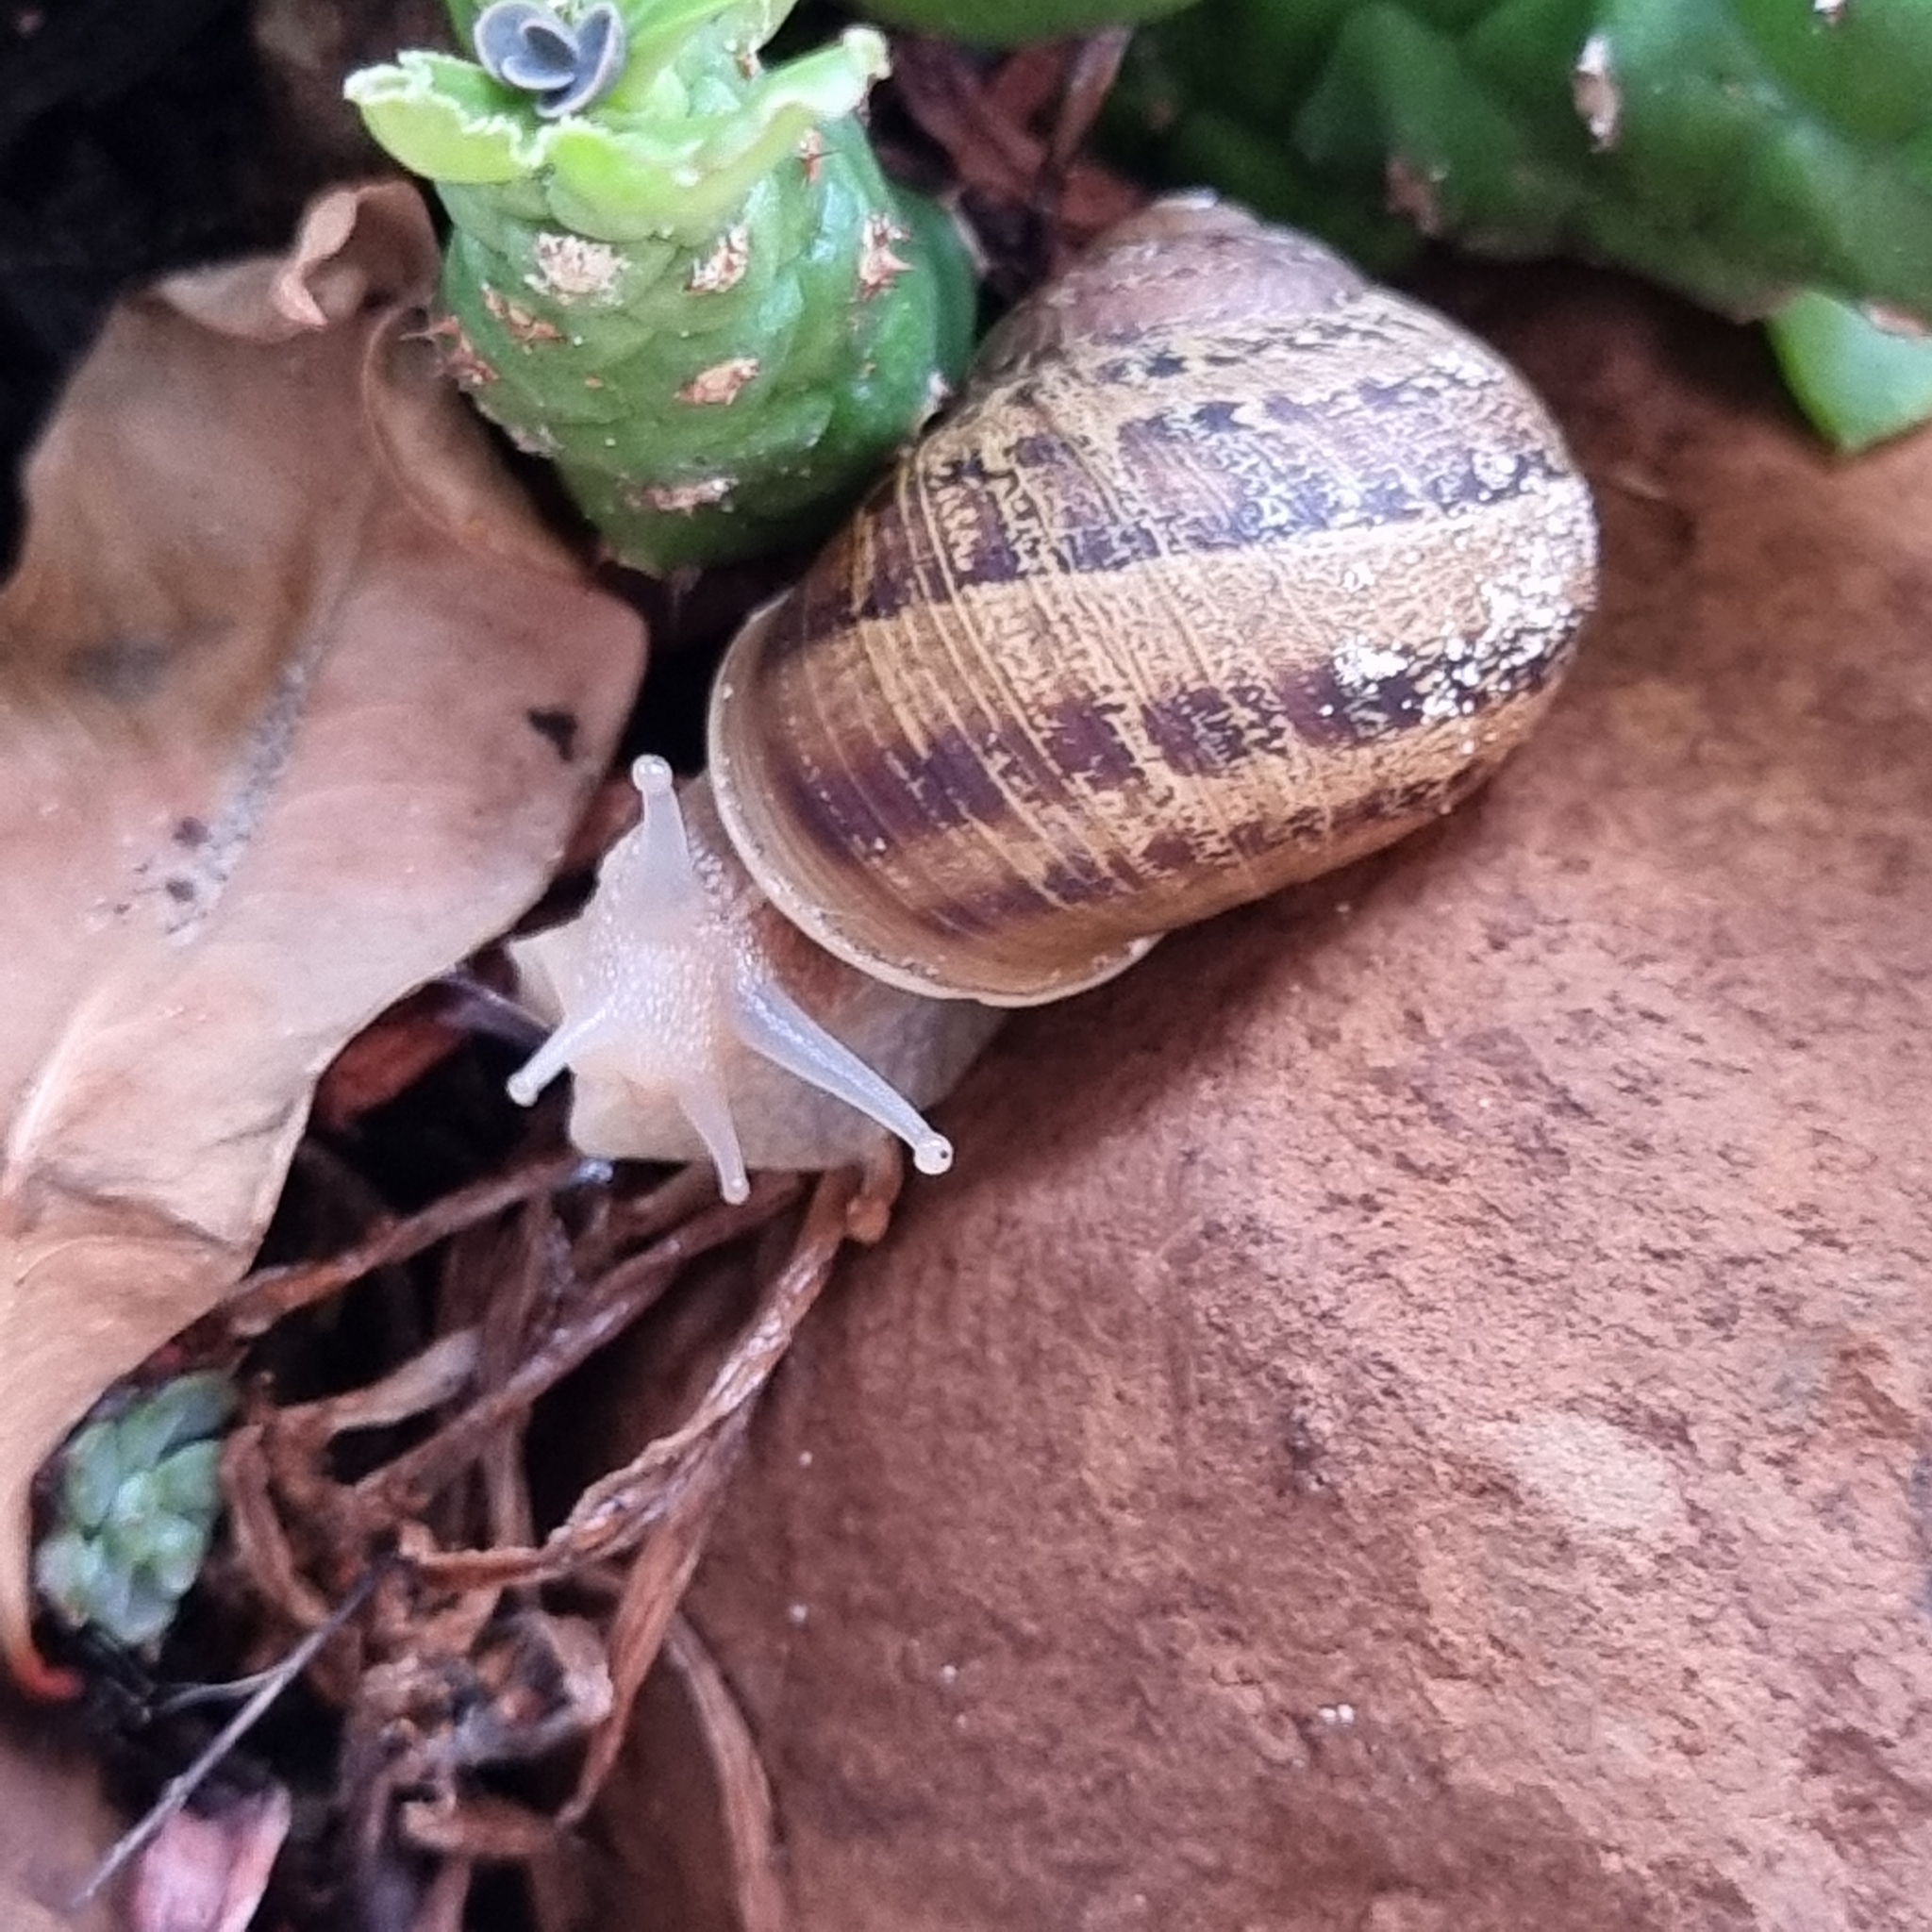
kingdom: Animalia
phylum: Mollusca
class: Gastropoda
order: Stylommatophora
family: Helicidae
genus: Cornu
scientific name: Cornu aspersum
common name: Brown garden snail
